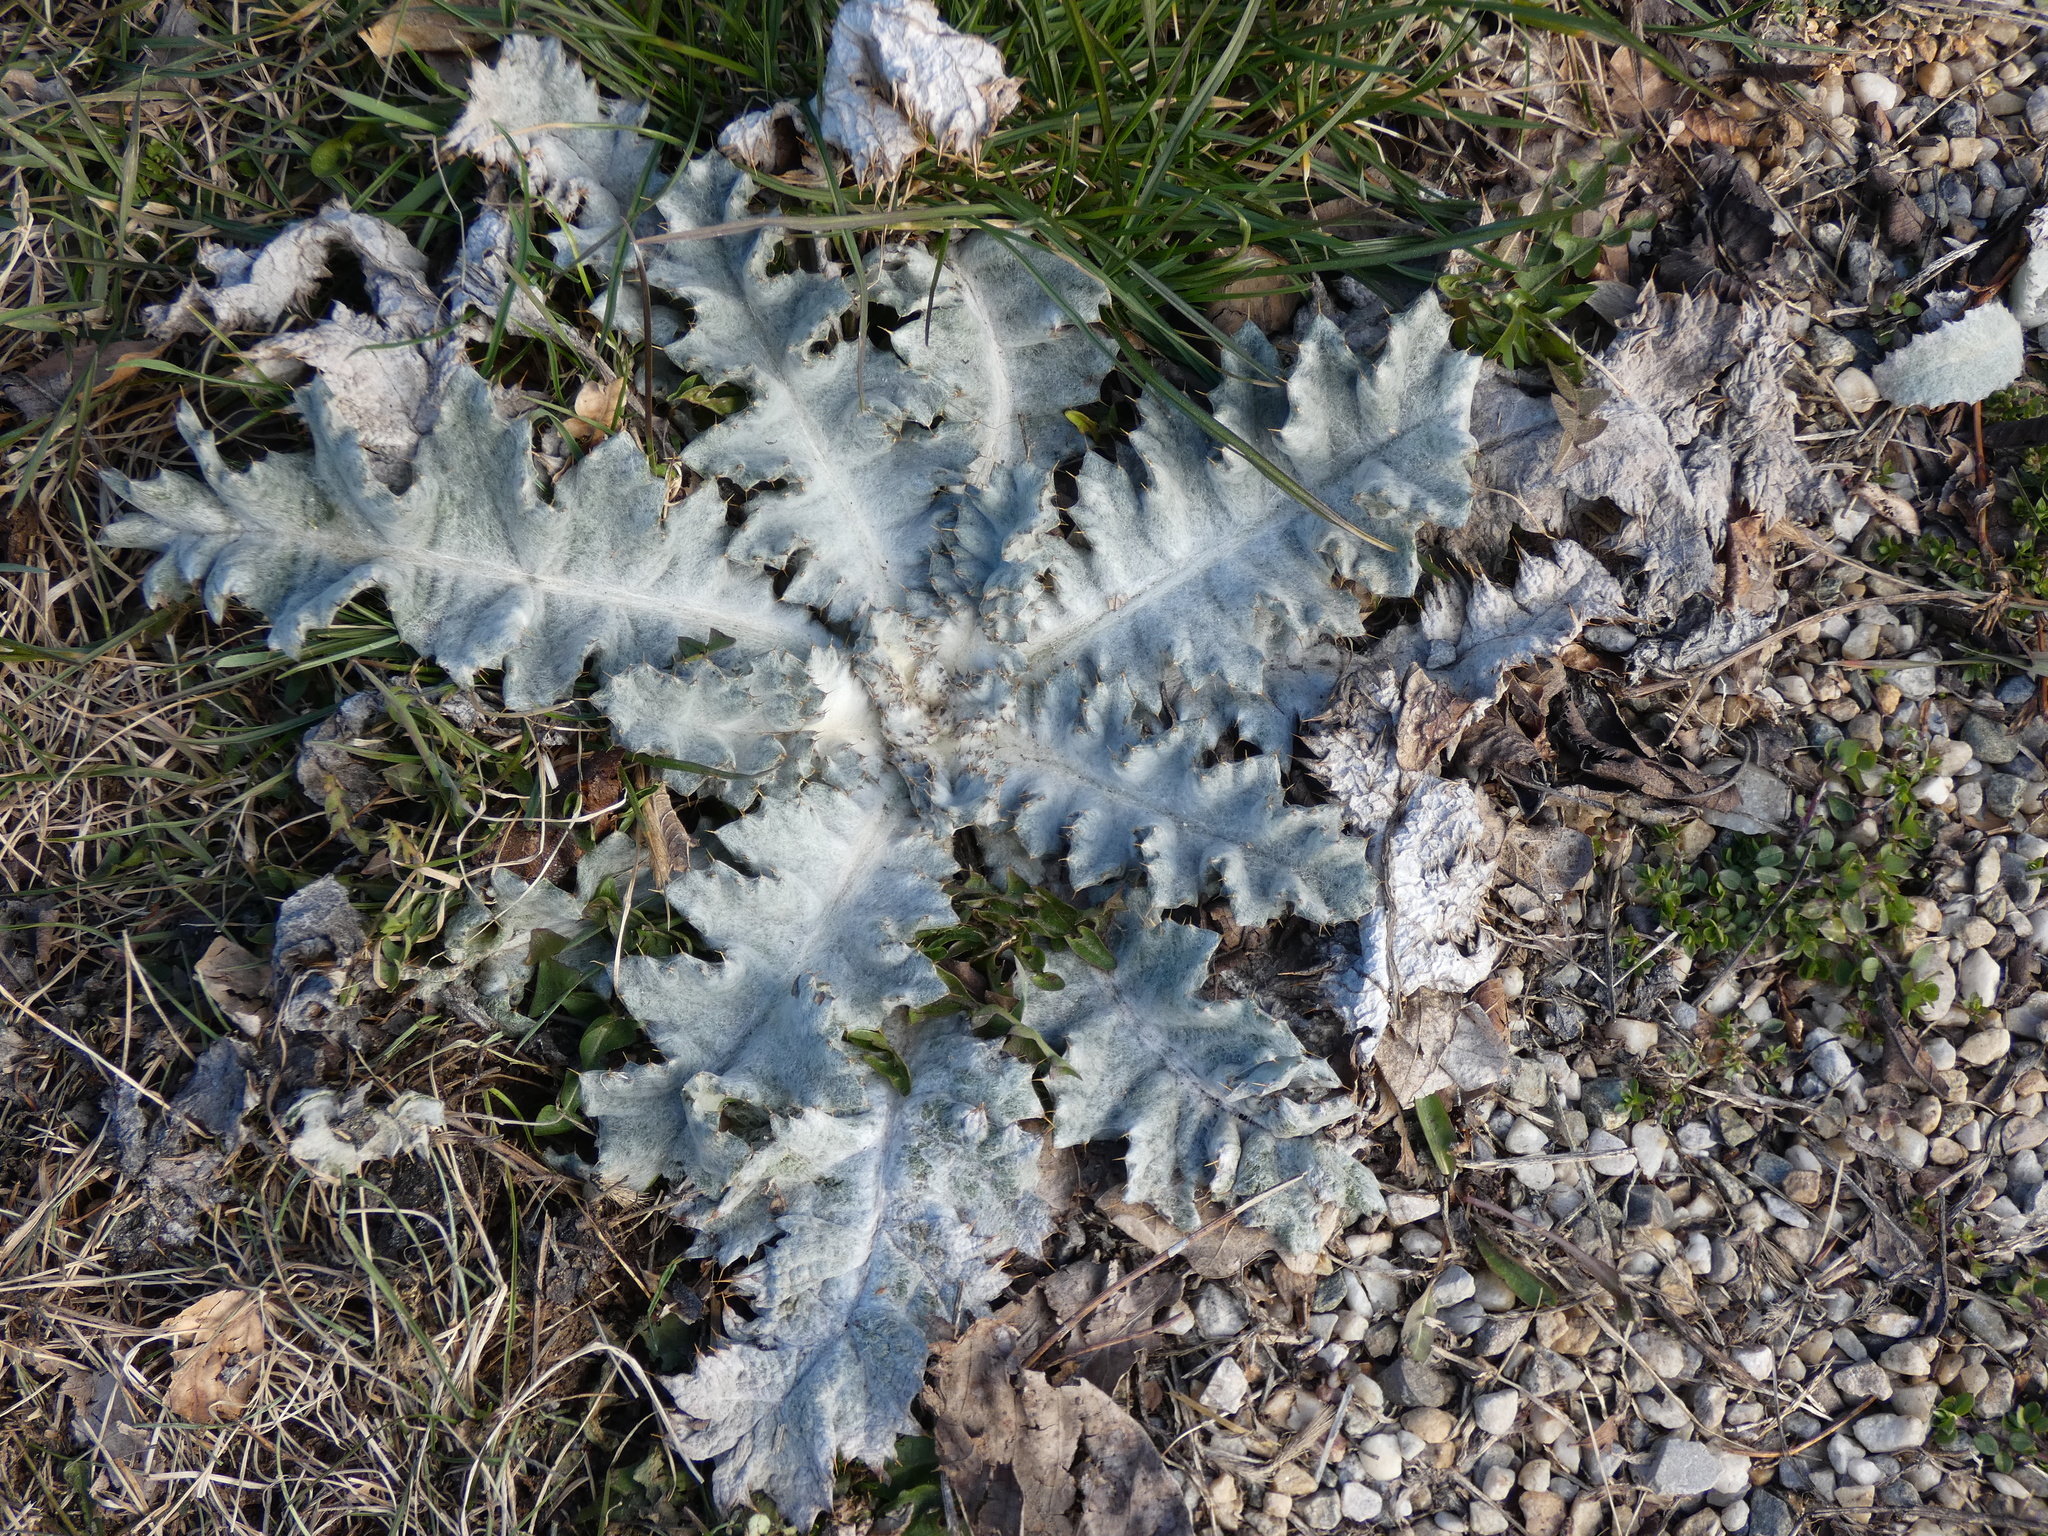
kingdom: Plantae
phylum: Tracheophyta
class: Magnoliopsida
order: Asterales
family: Asteraceae
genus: Onopordum
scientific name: Onopordum acanthium
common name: Scotch thistle
